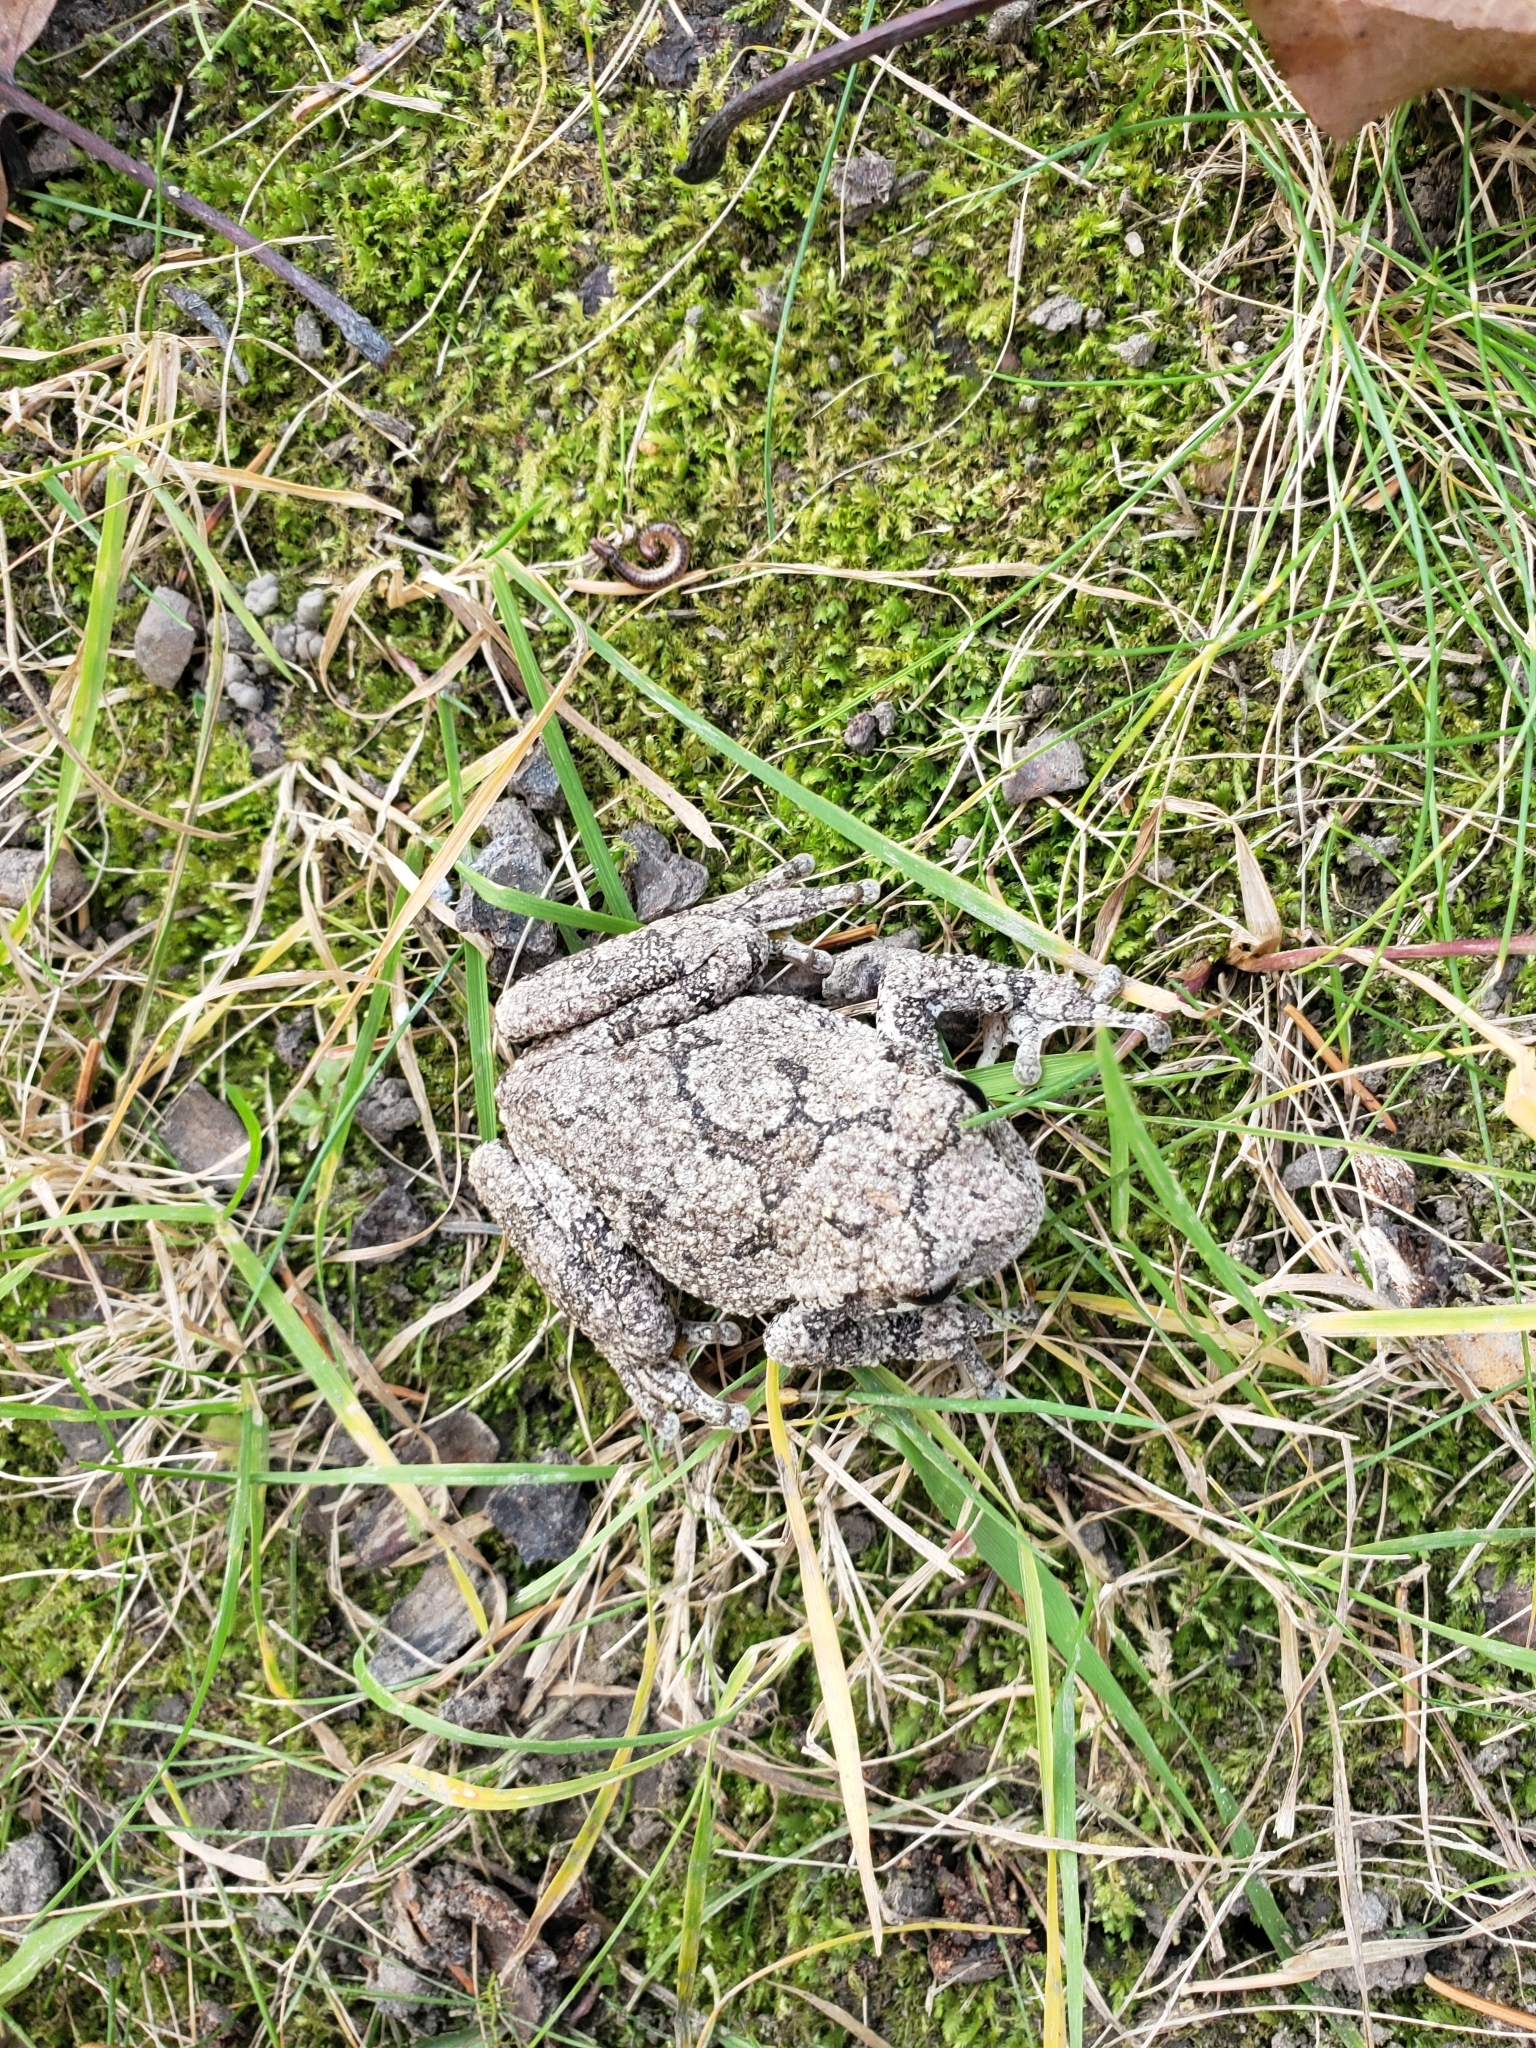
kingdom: Animalia
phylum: Chordata
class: Amphibia
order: Anura
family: Hylidae
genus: Dryophytes
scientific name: Dryophytes versicolor
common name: Gray treefrog
